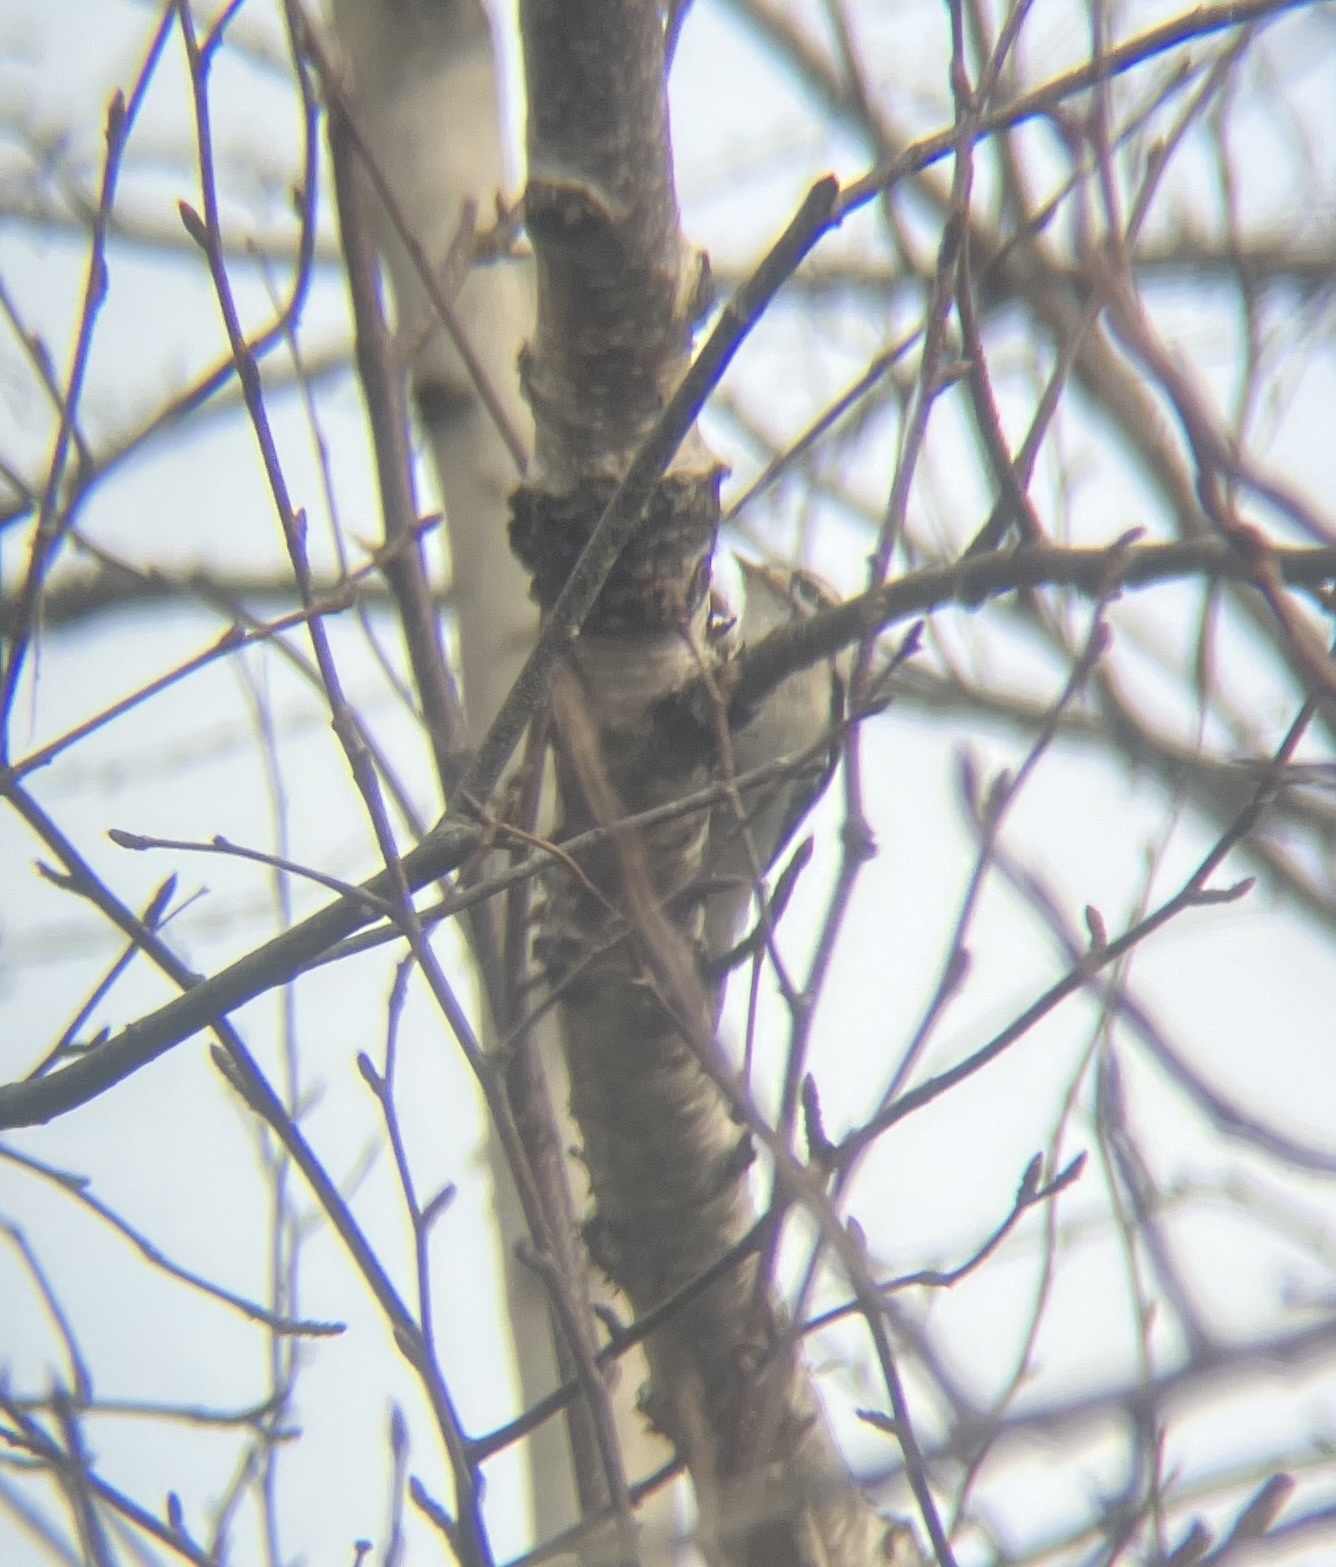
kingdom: Animalia
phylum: Chordata
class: Aves
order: Piciformes
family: Picidae
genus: Dryobates
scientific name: Dryobates pubescens
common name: Downy woodpecker
